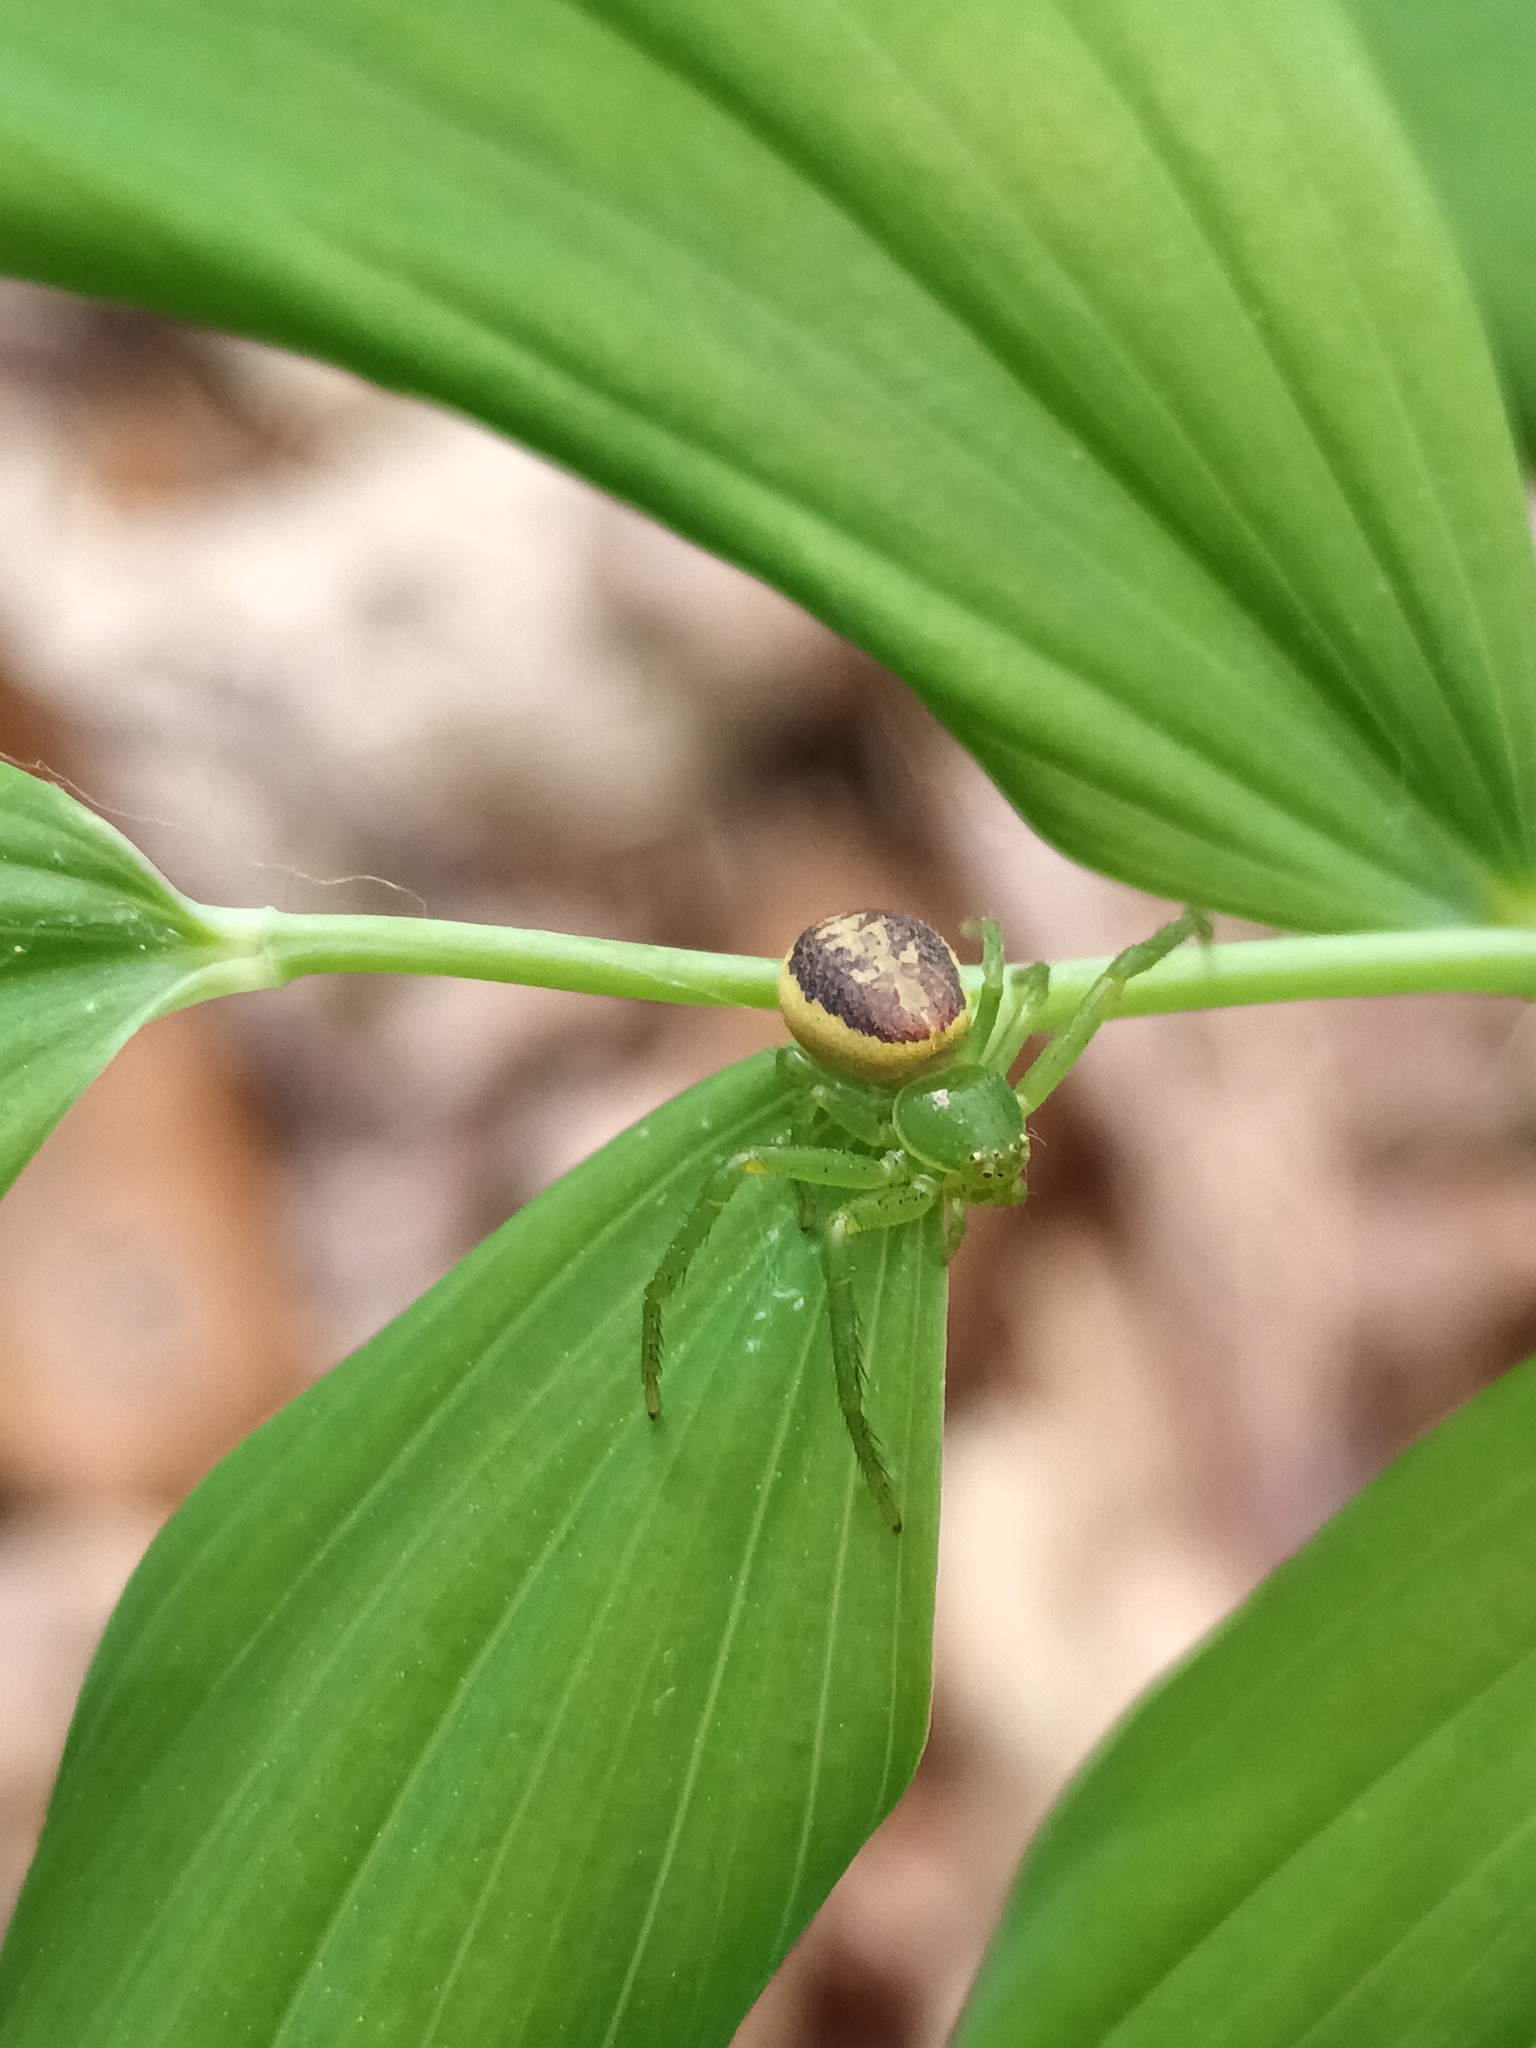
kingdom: Animalia
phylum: Arthropoda
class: Arachnida
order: Araneae
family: Thomisidae
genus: Diaea
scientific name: Diaea dorsata
